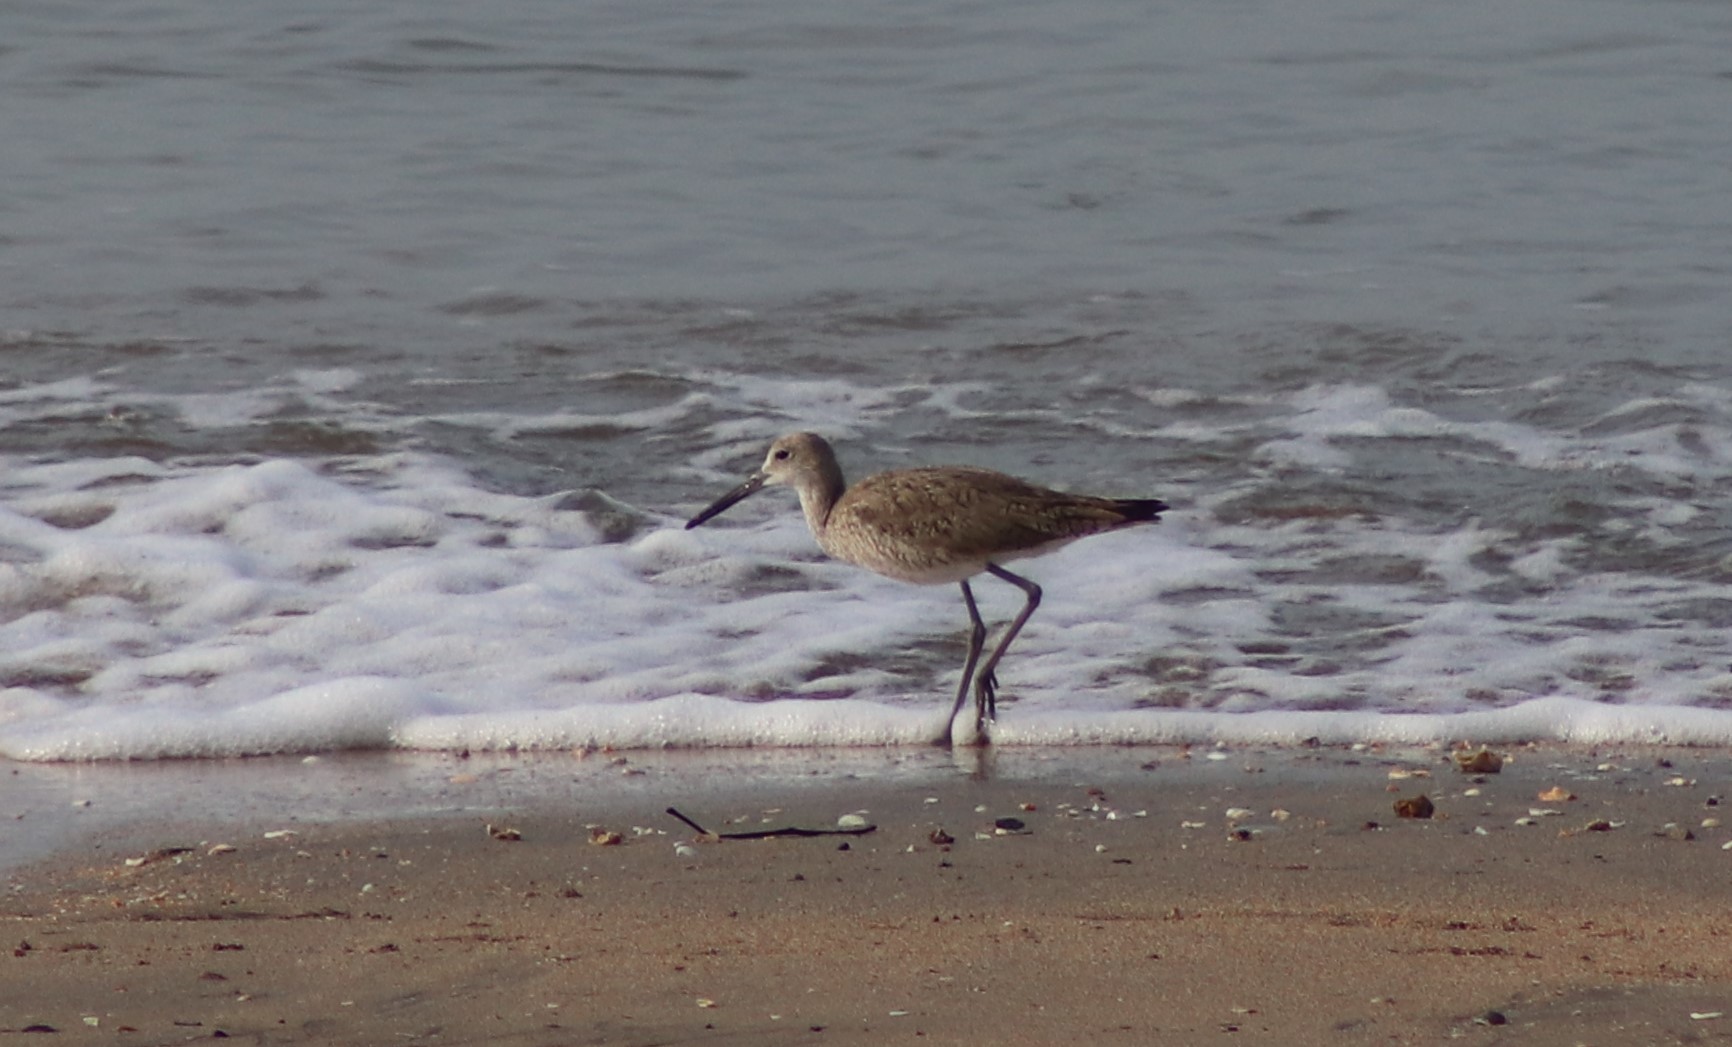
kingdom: Animalia
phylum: Chordata
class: Aves
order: Charadriiformes
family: Scolopacidae
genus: Tringa
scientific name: Tringa semipalmata
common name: Willet
